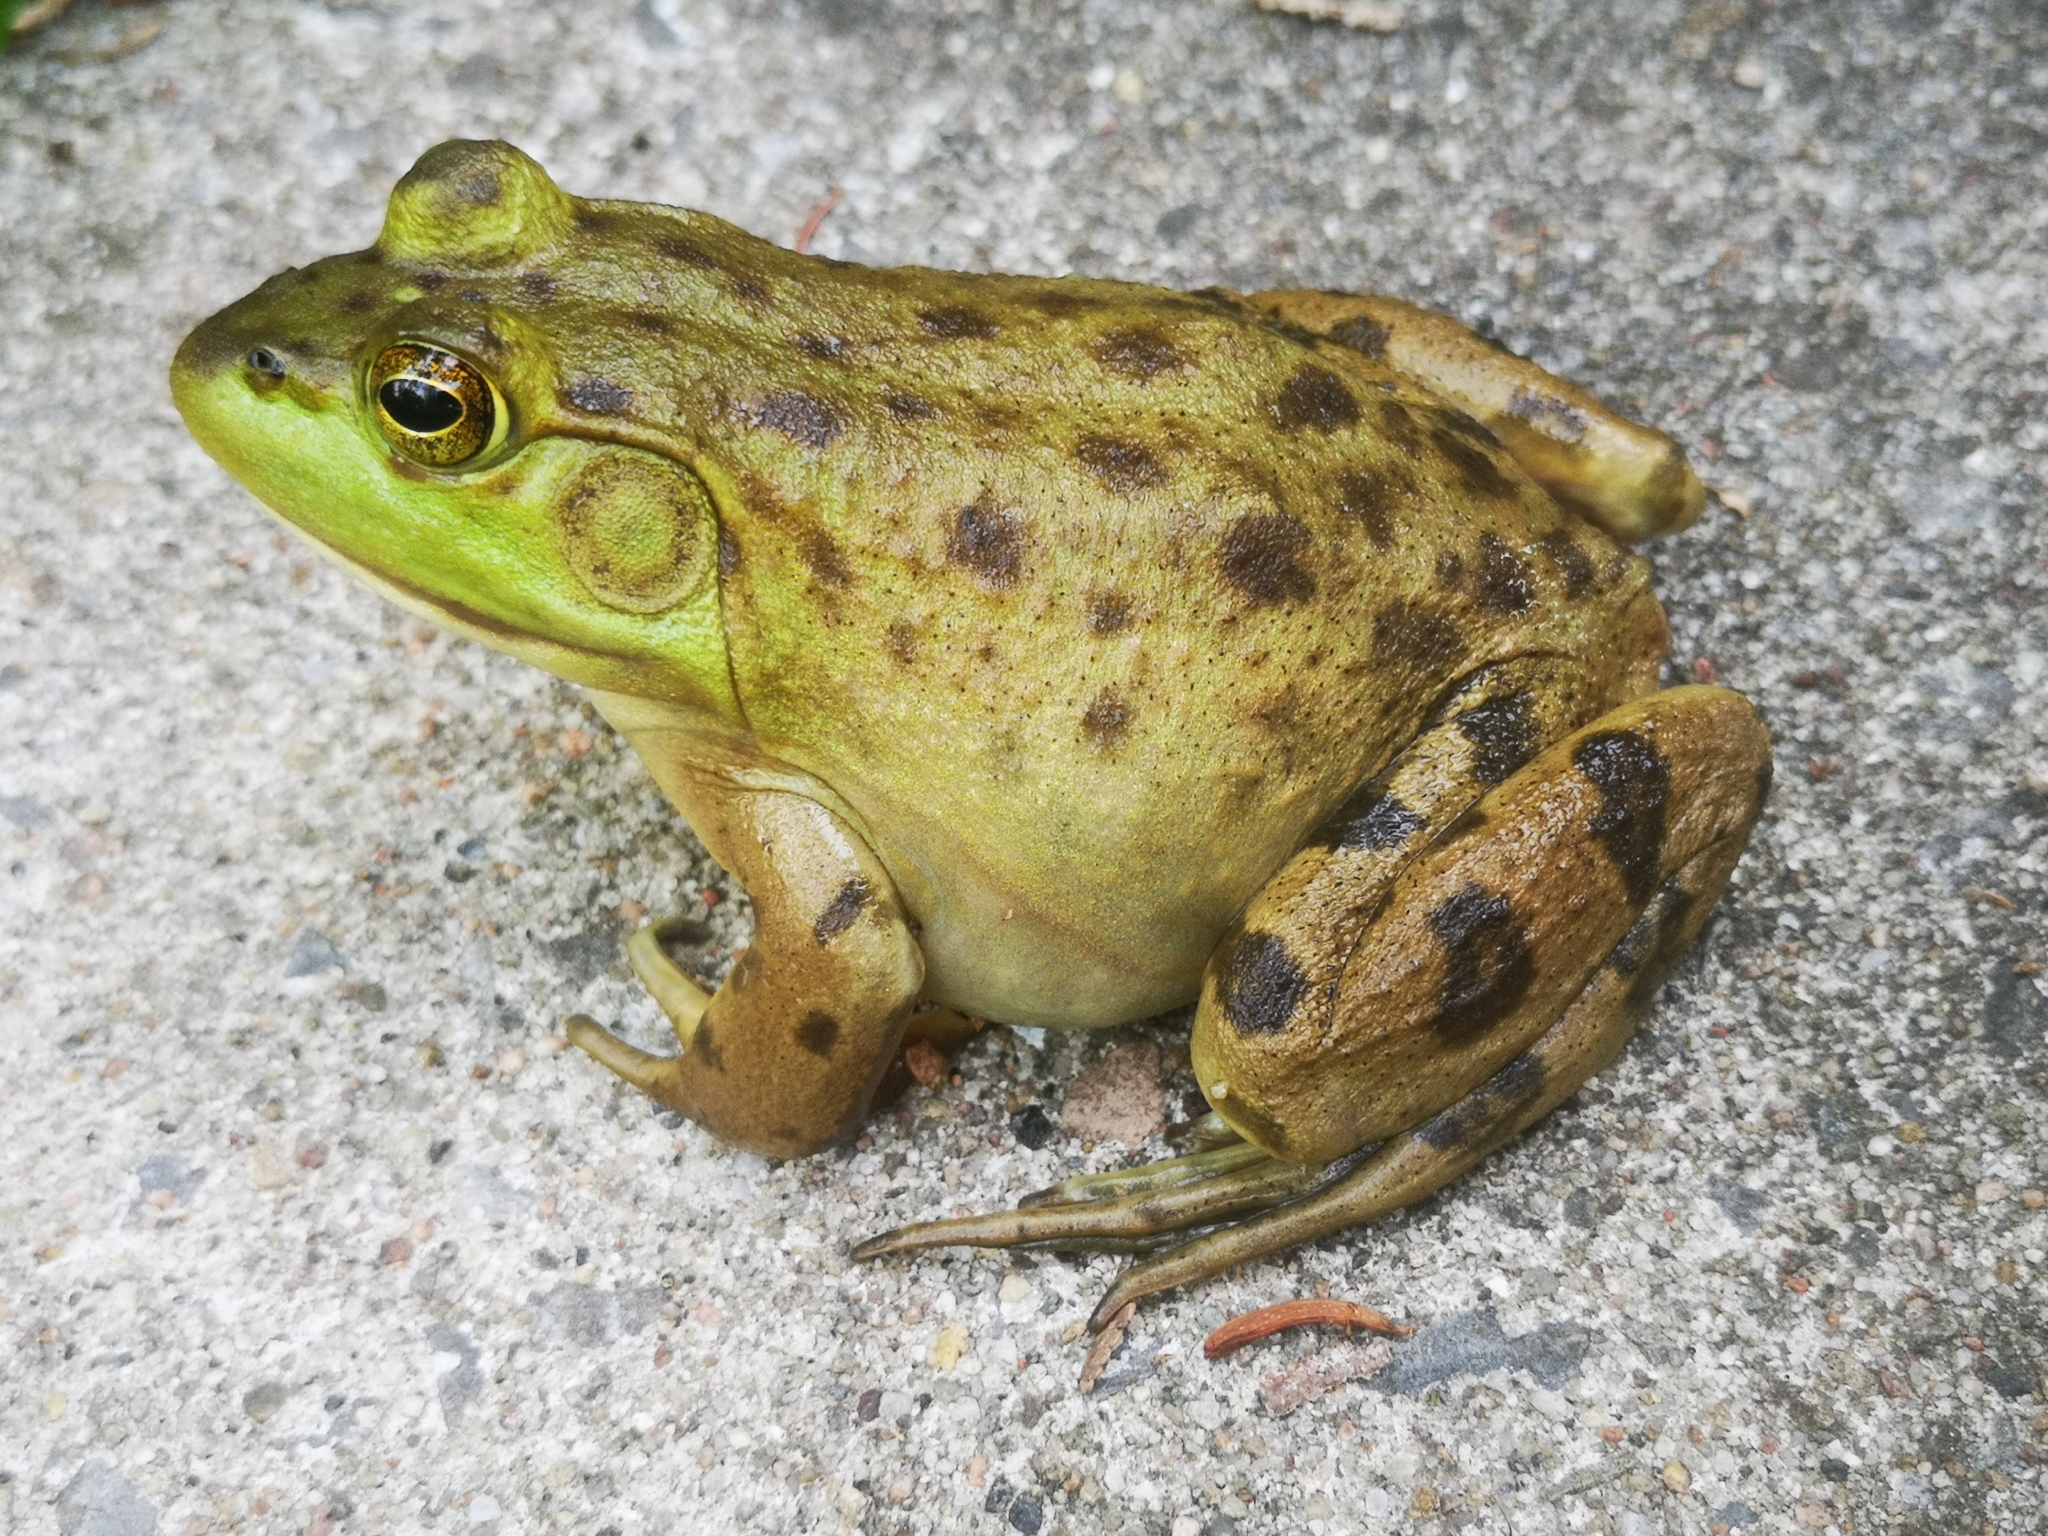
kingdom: Animalia
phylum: Chordata
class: Amphibia
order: Anura
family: Ranidae
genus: Lithobates
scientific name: Lithobates catesbeianus
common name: American bullfrog
